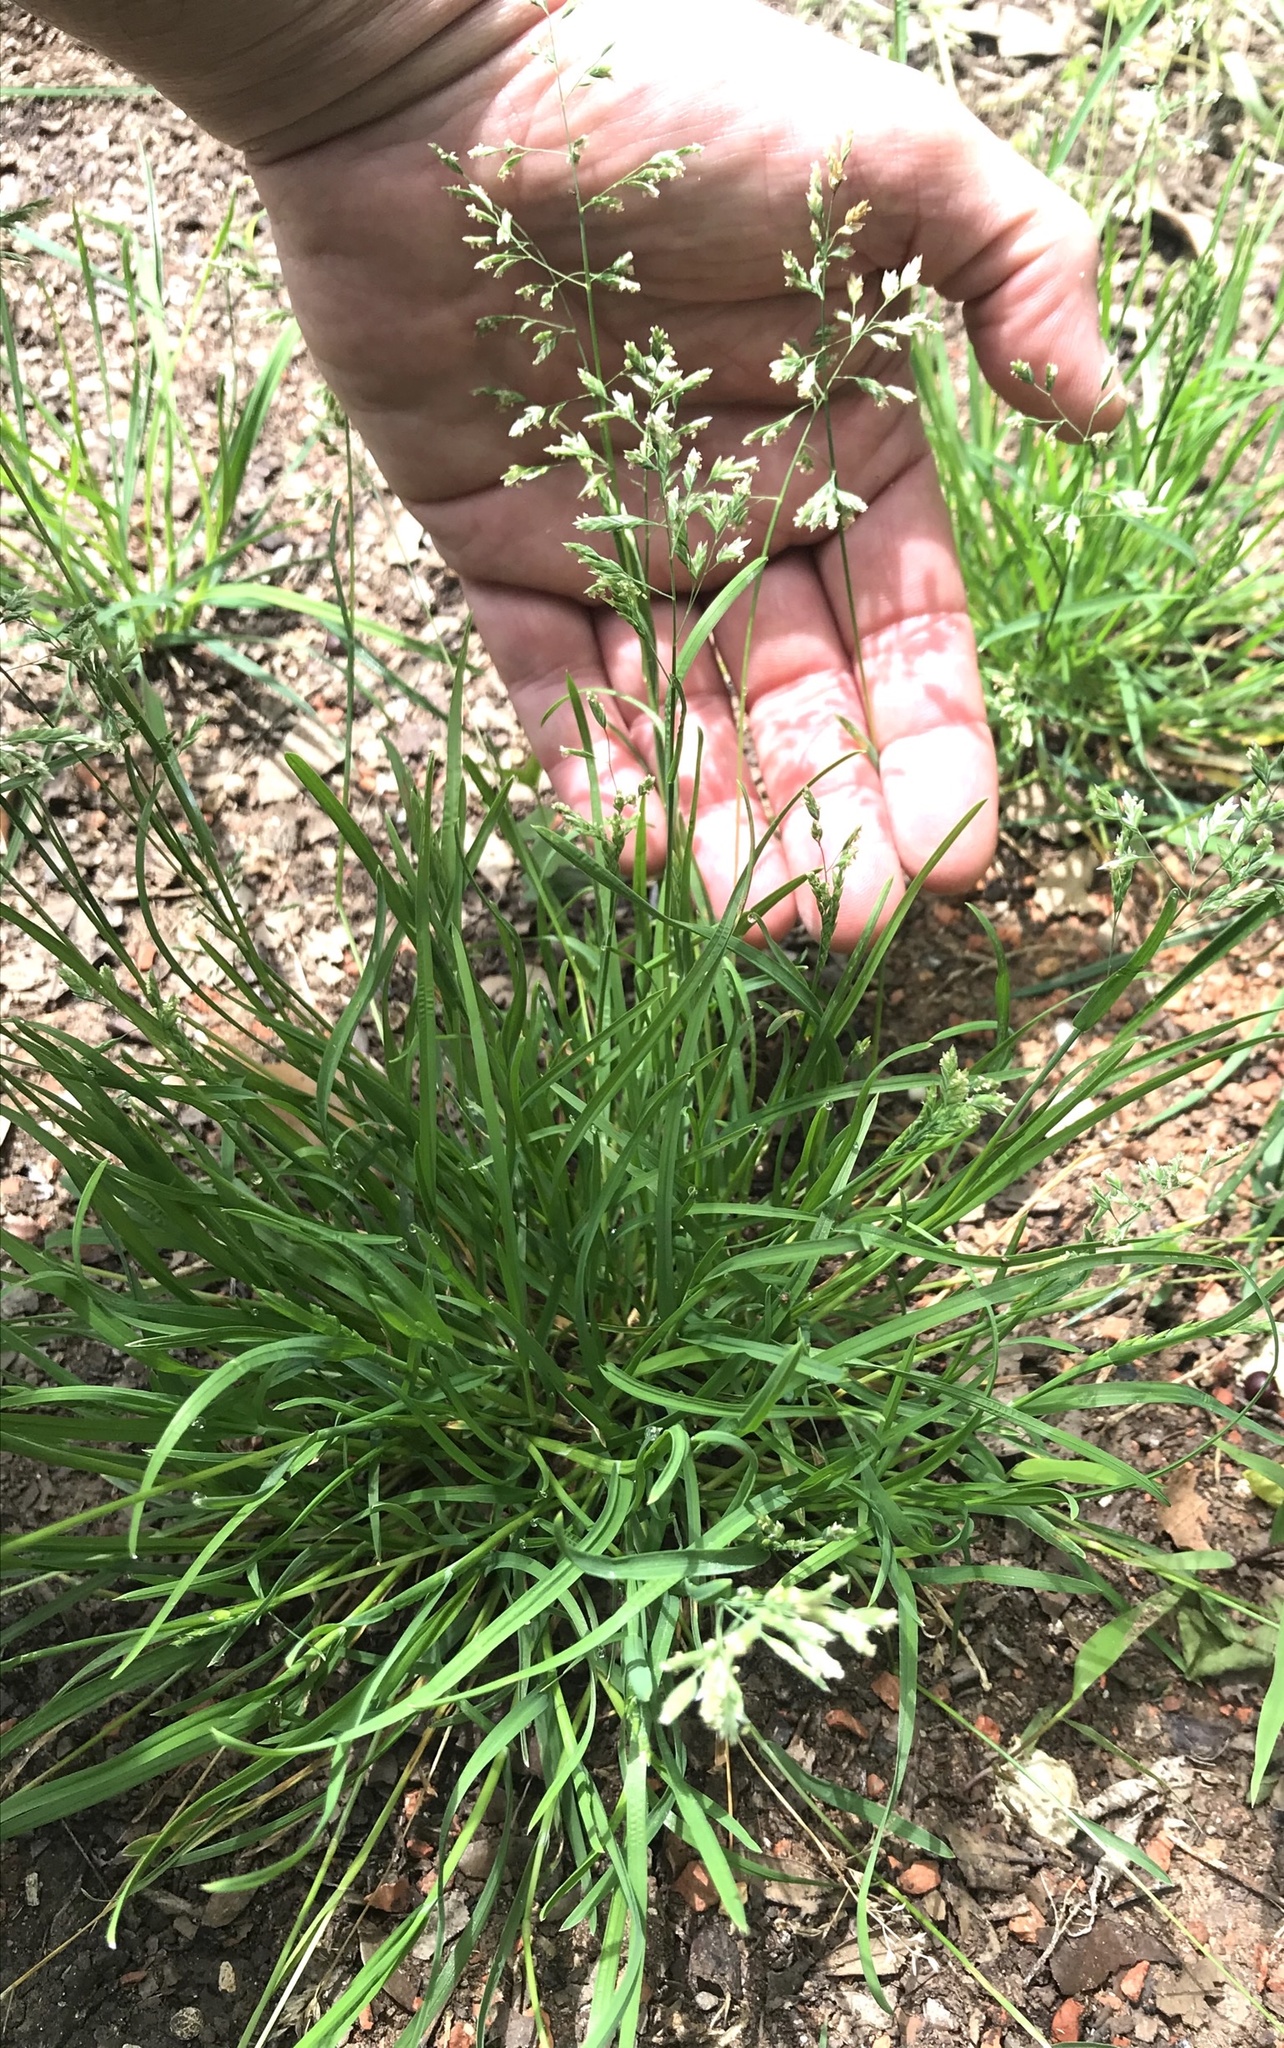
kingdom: Plantae
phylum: Tracheophyta
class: Liliopsida
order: Poales
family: Poaceae
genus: Poa
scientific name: Poa annua
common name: Annual bluegrass
